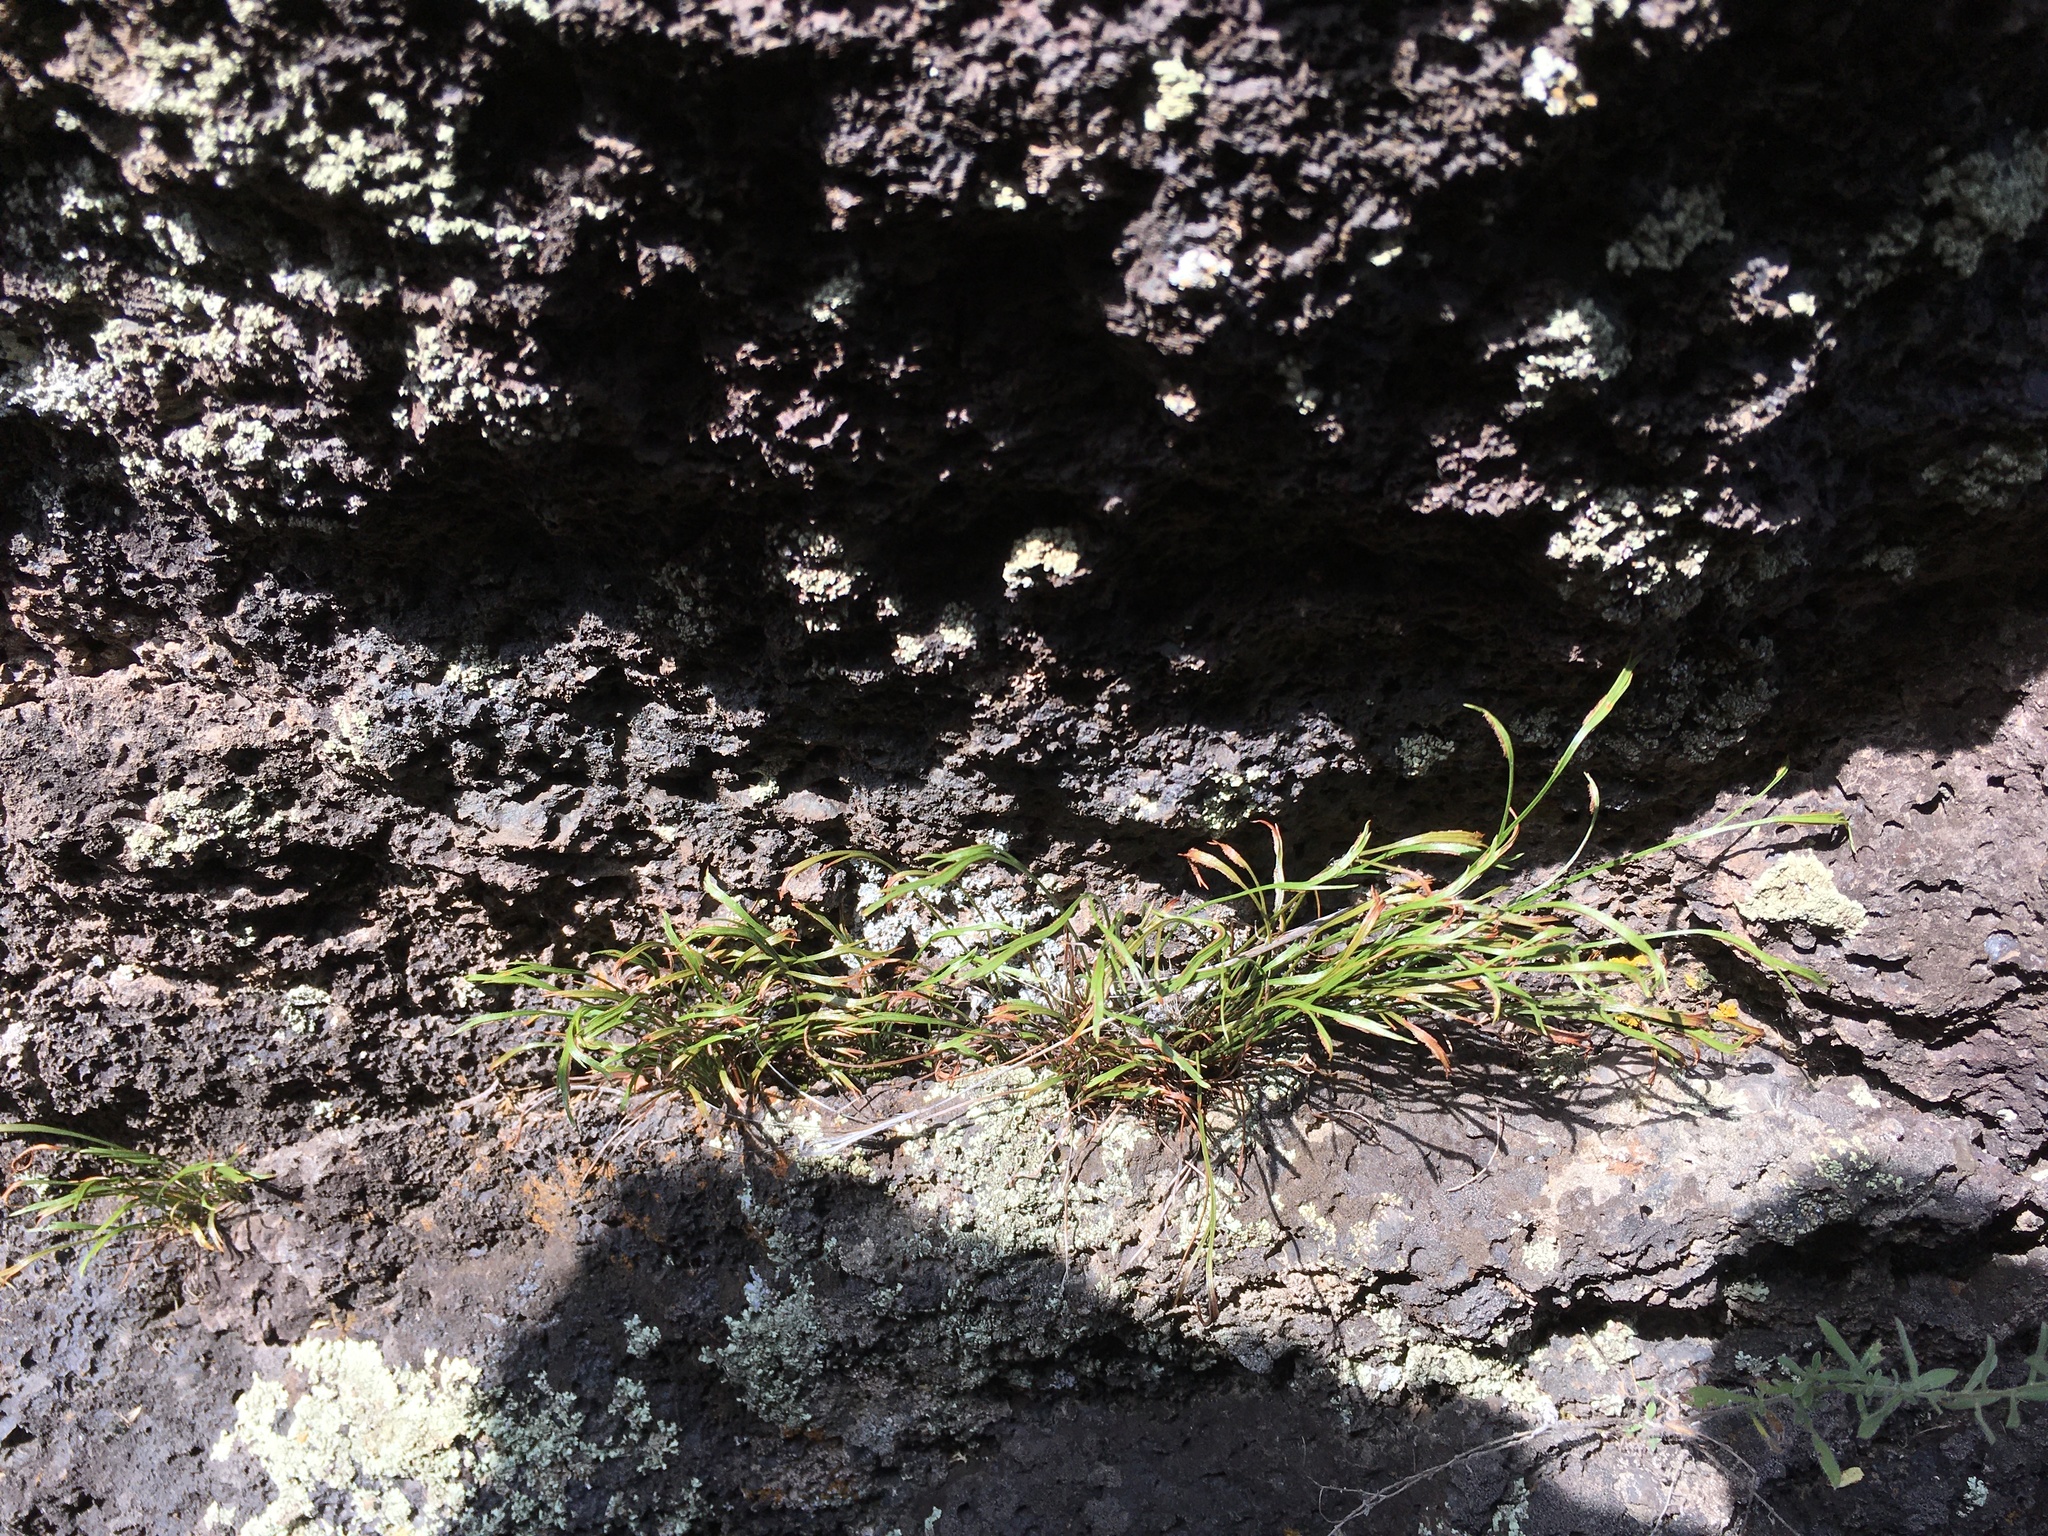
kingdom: Plantae
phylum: Tracheophyta
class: Polypodiopsida
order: Polypodiales
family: Aspleniaceae
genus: Asplenium
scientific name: Asplenium septentrionale
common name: Forked spleenwort
